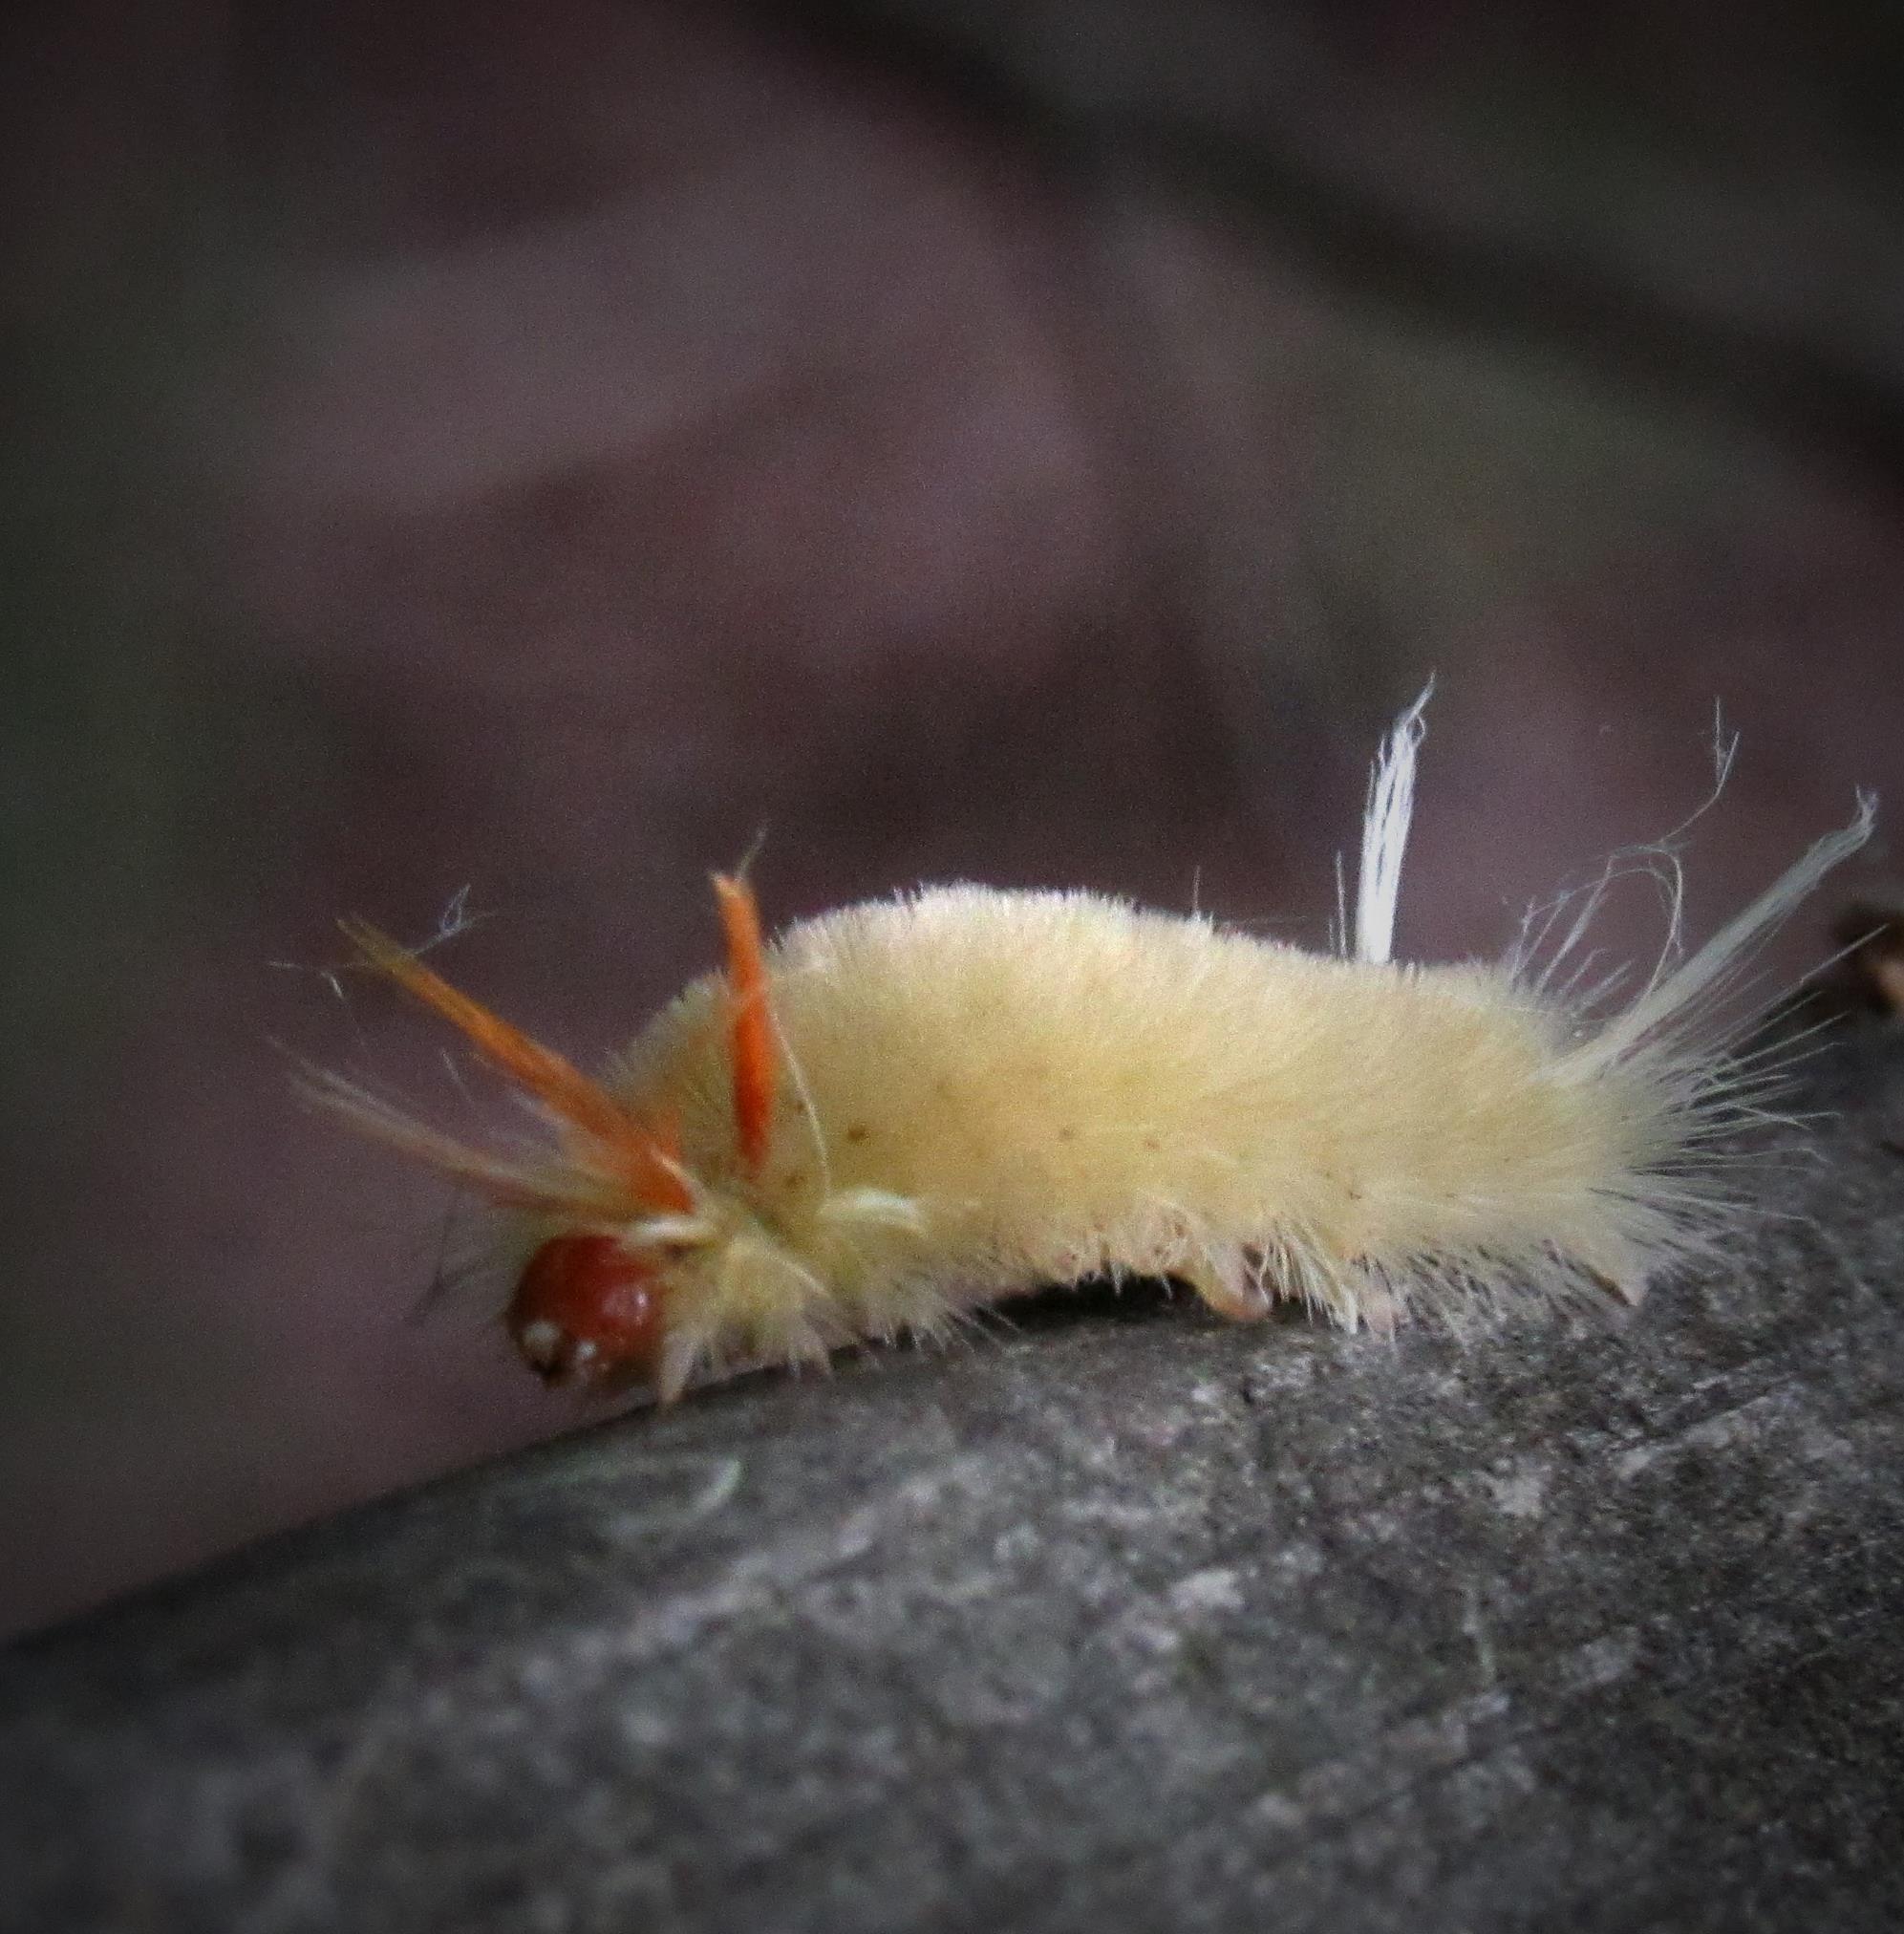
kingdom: Animalia
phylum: Arthropoda
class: Insecta
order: Lepidoptera
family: Erebidae
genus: Halysidota
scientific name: Halysidota harrisii
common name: Sycamore tussock moth
